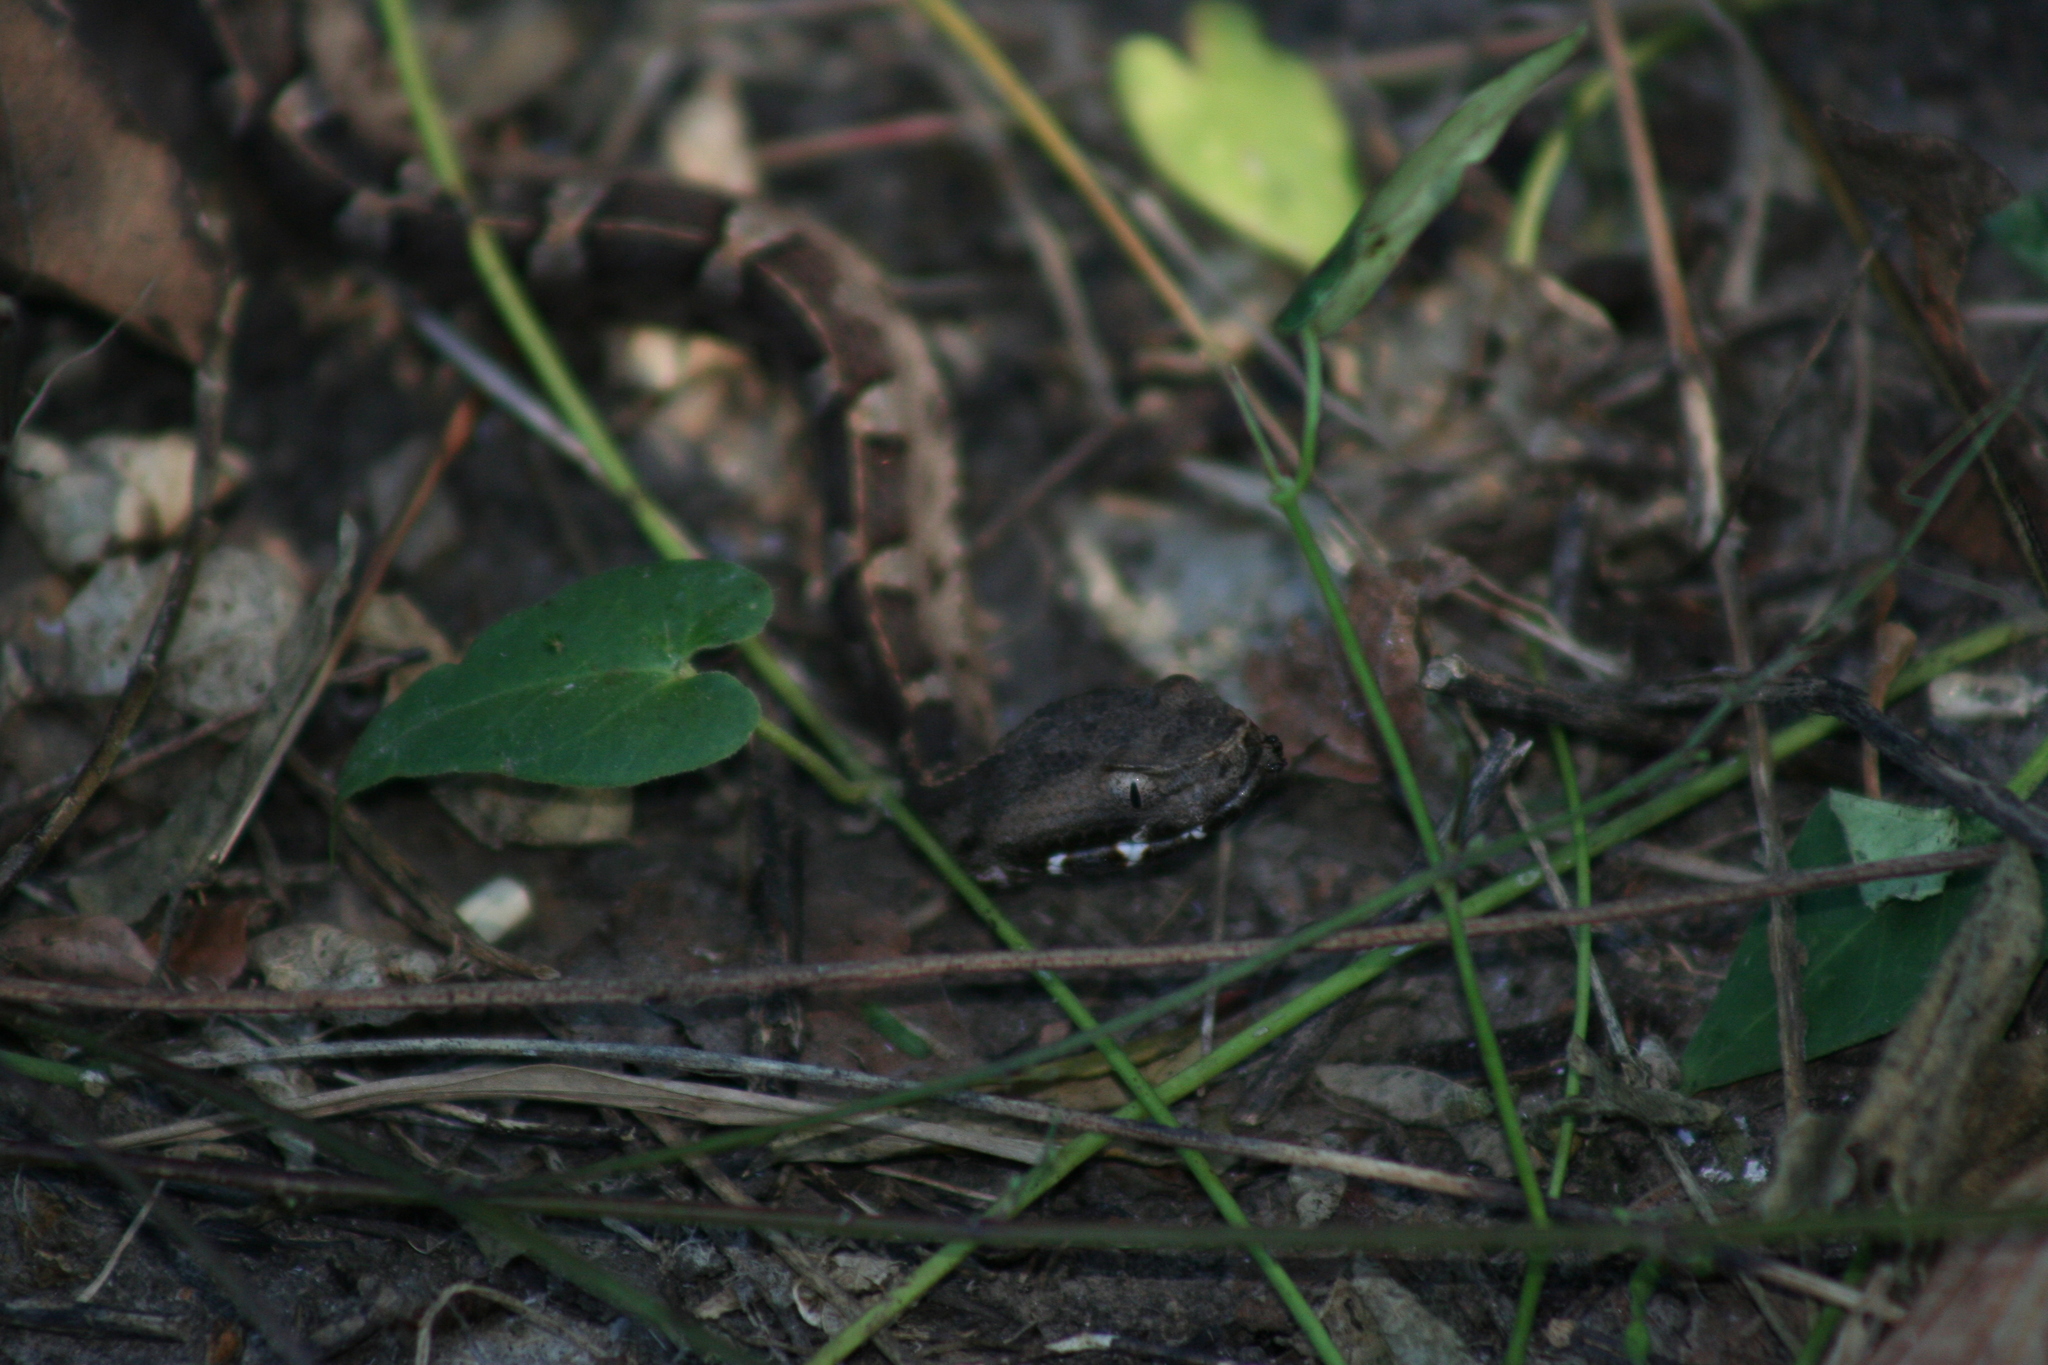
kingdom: Animalia
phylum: Chordata
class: Squamata
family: Viperidae
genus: Porthidium
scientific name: Porthidium ophryomegas
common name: Slender hognose viper
